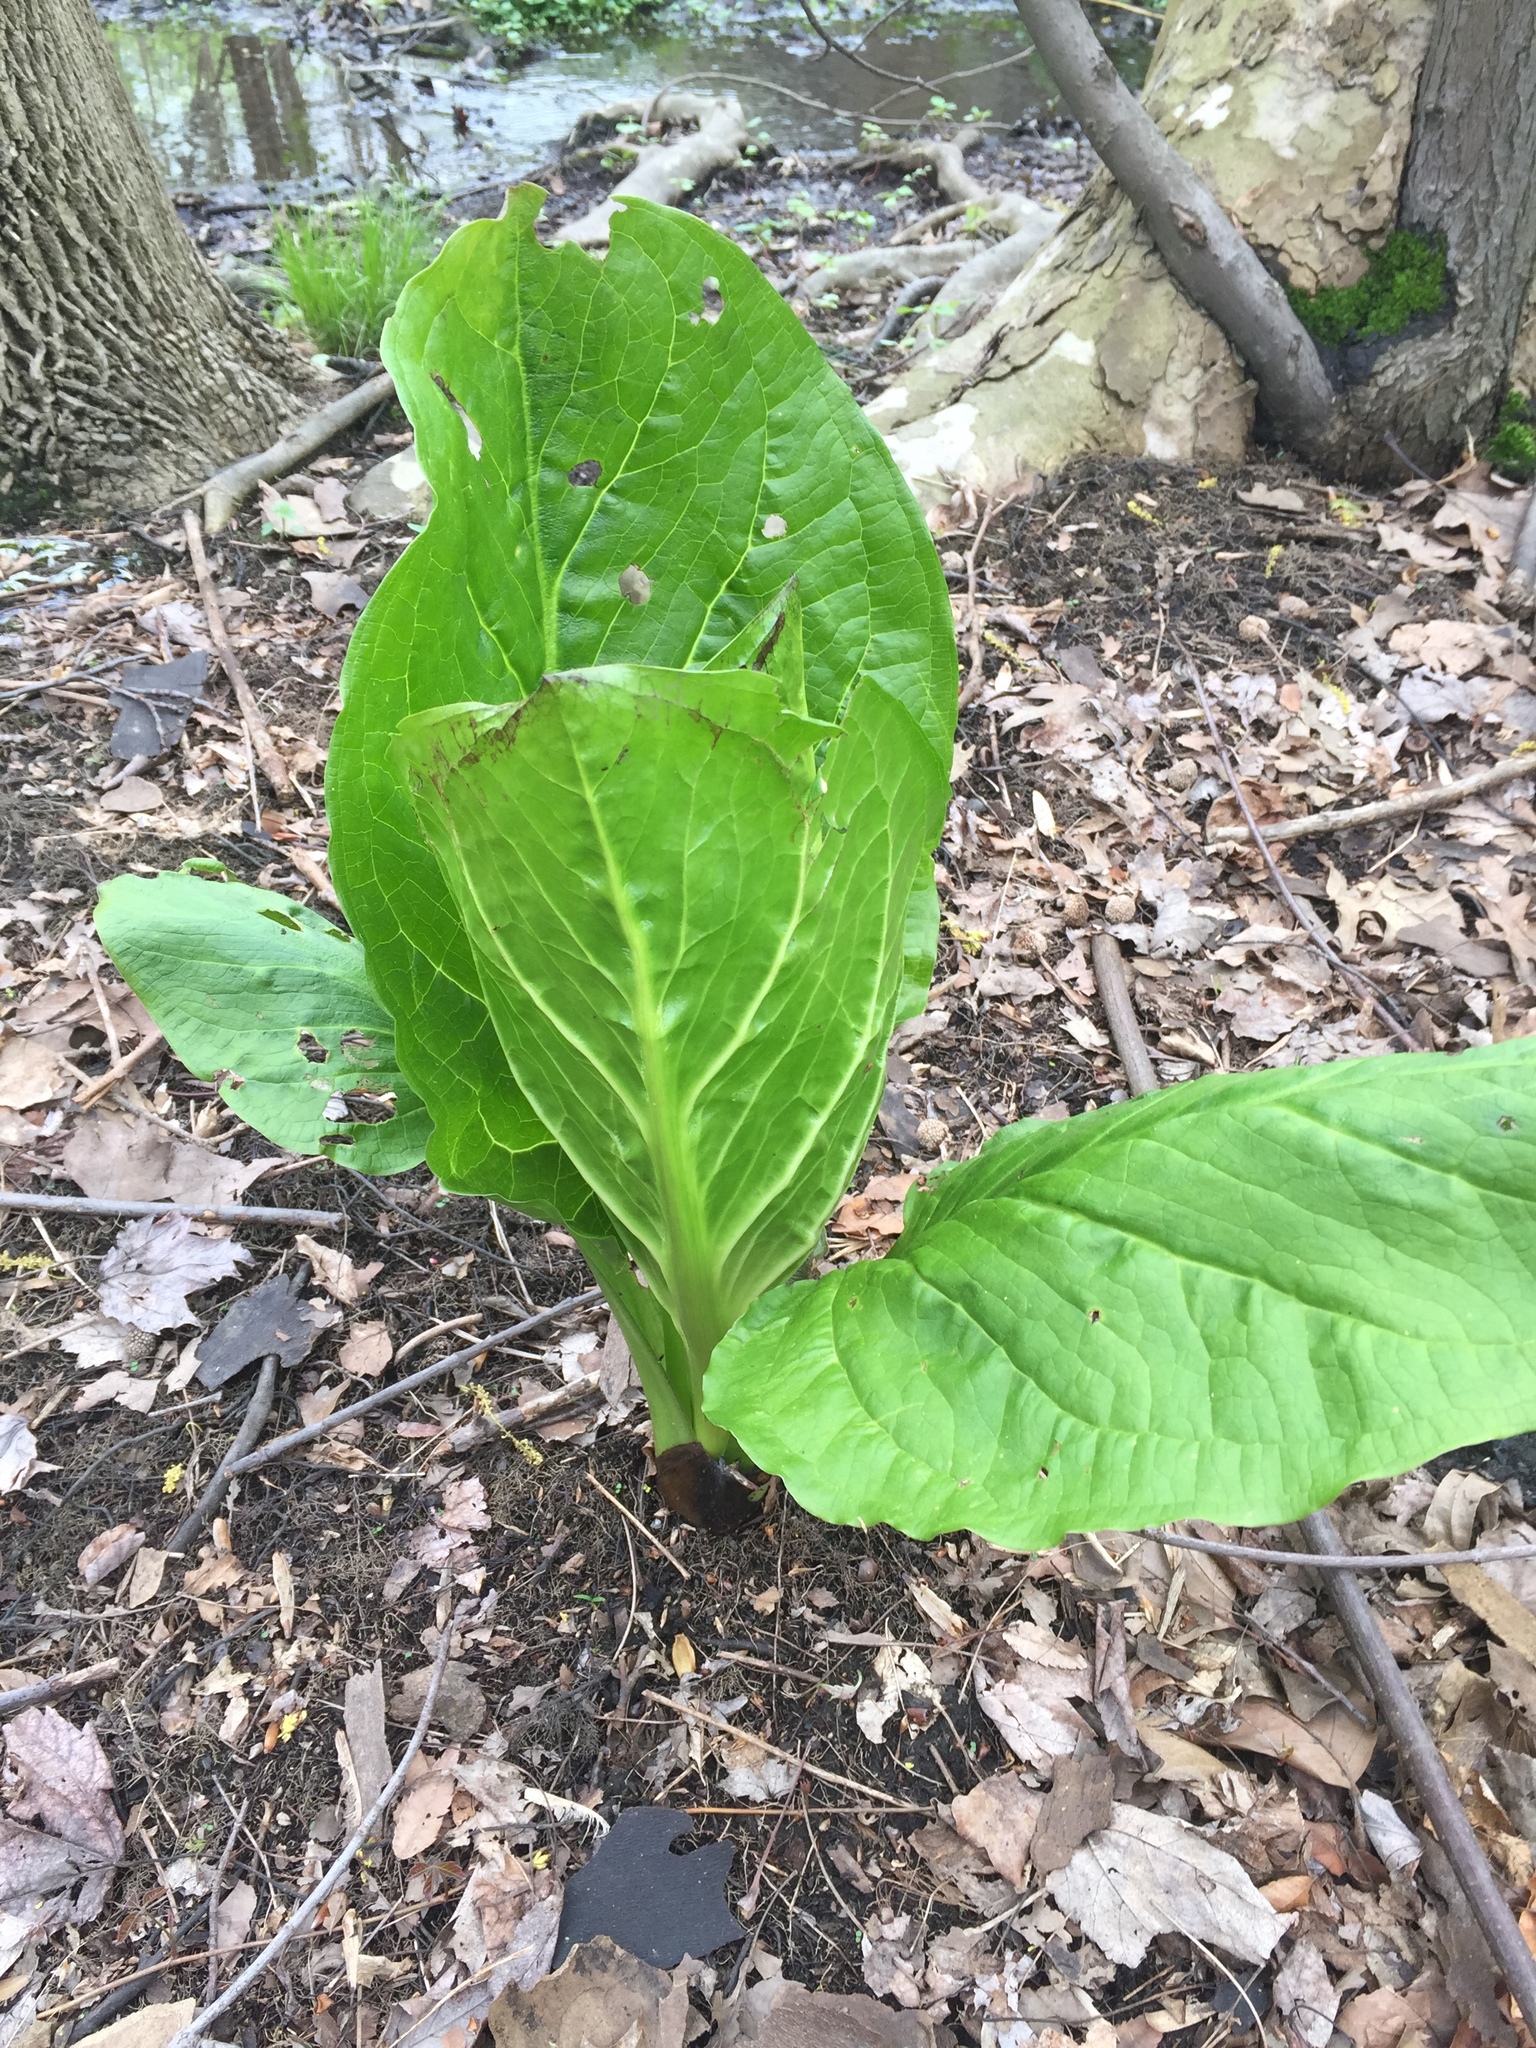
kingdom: Plantae
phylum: Tracheophyta
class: Liliopsida
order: Alismatales
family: Araceae
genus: Symplocarpus
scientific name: Symplocarpus foetidus
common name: Eastern skunk cabbage
